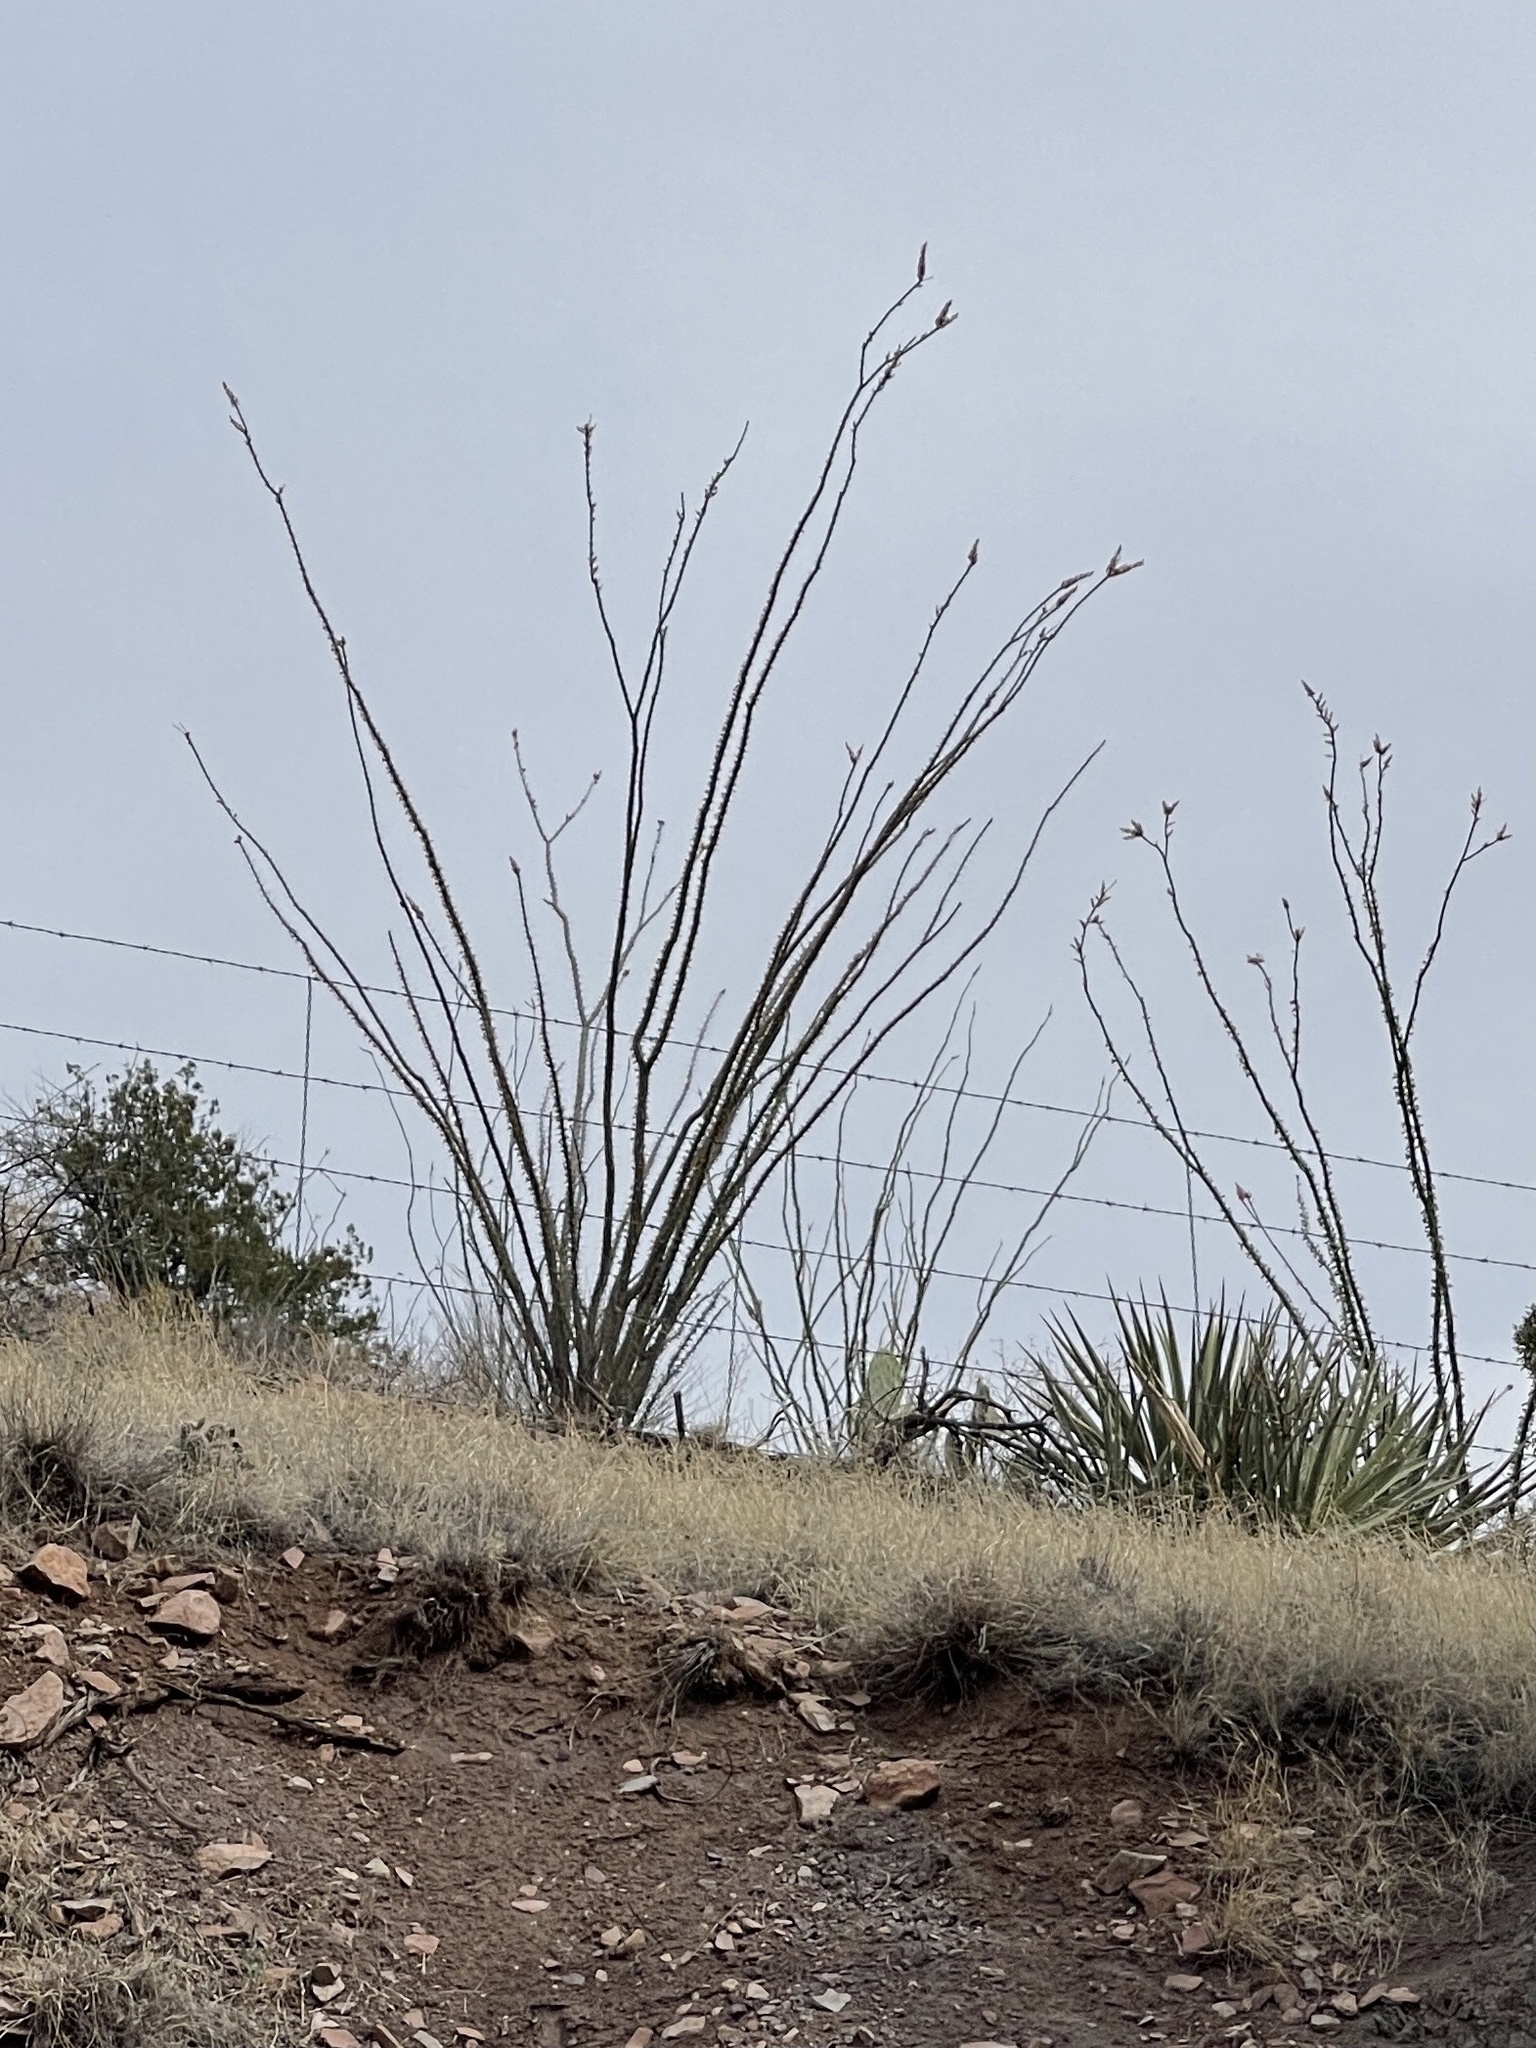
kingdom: Plantae
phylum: Tracheophyta
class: Magnoliopsida
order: Ericales
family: Fouquieriaceae
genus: Fouquieria
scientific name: Fouquieria splendens
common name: Vine-cactus
